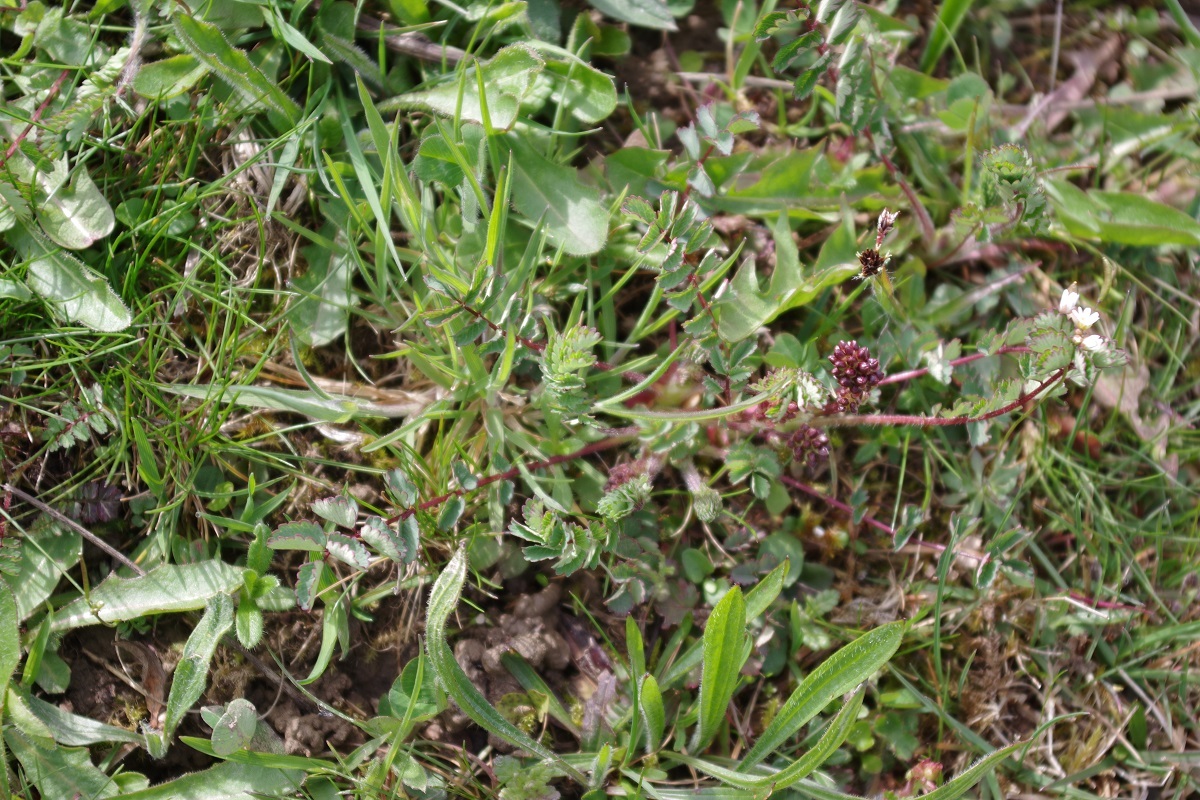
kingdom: Plantae
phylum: Tracheophyta
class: Magnoliopsida
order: Rosales
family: Rosaceae
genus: Poterium
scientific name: Poterium sanguisorba
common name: Salad burnet
